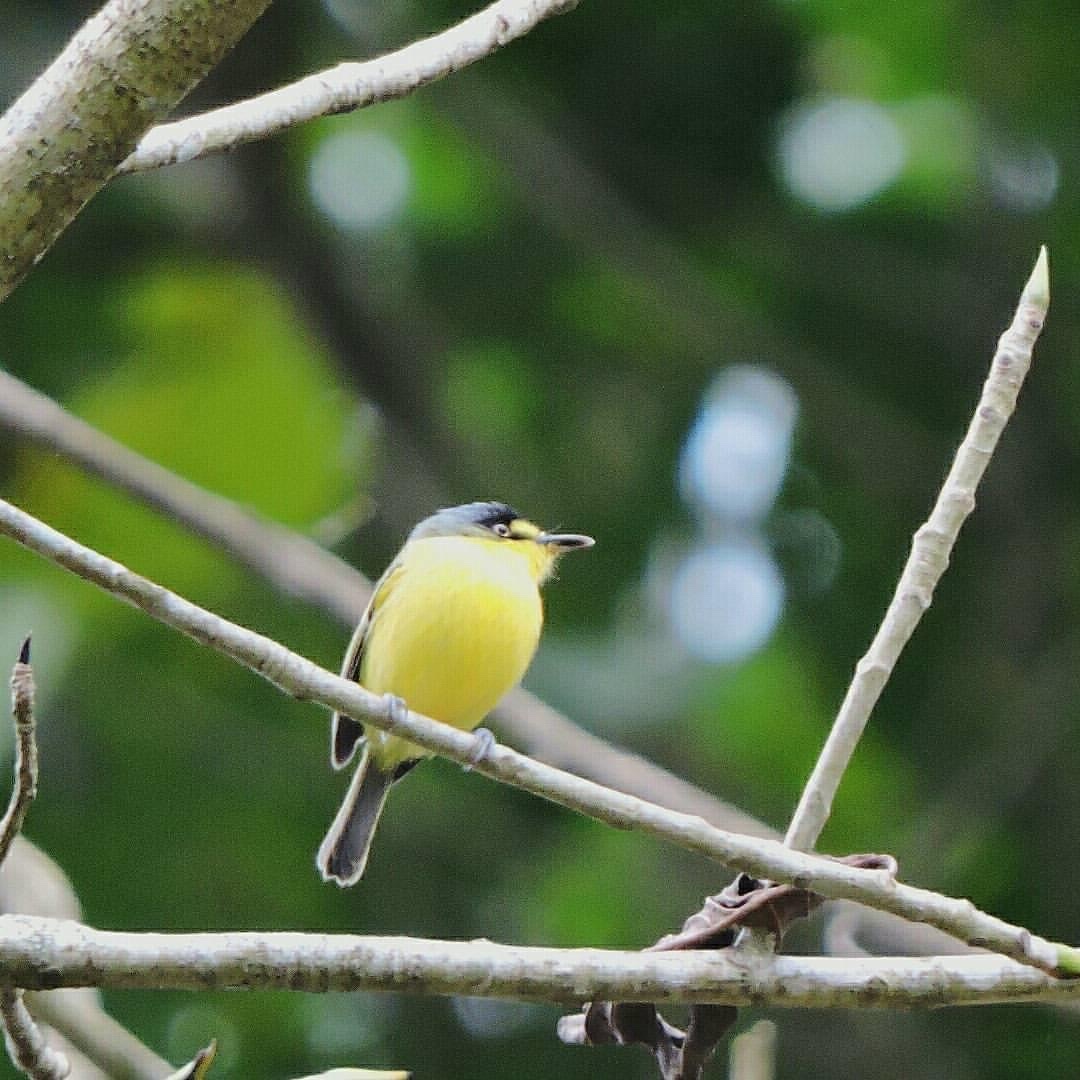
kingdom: Animalia
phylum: Chordata
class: Aves
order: Passeriformes
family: Tyrannidae
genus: Todirostrum
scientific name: Todirostrum
